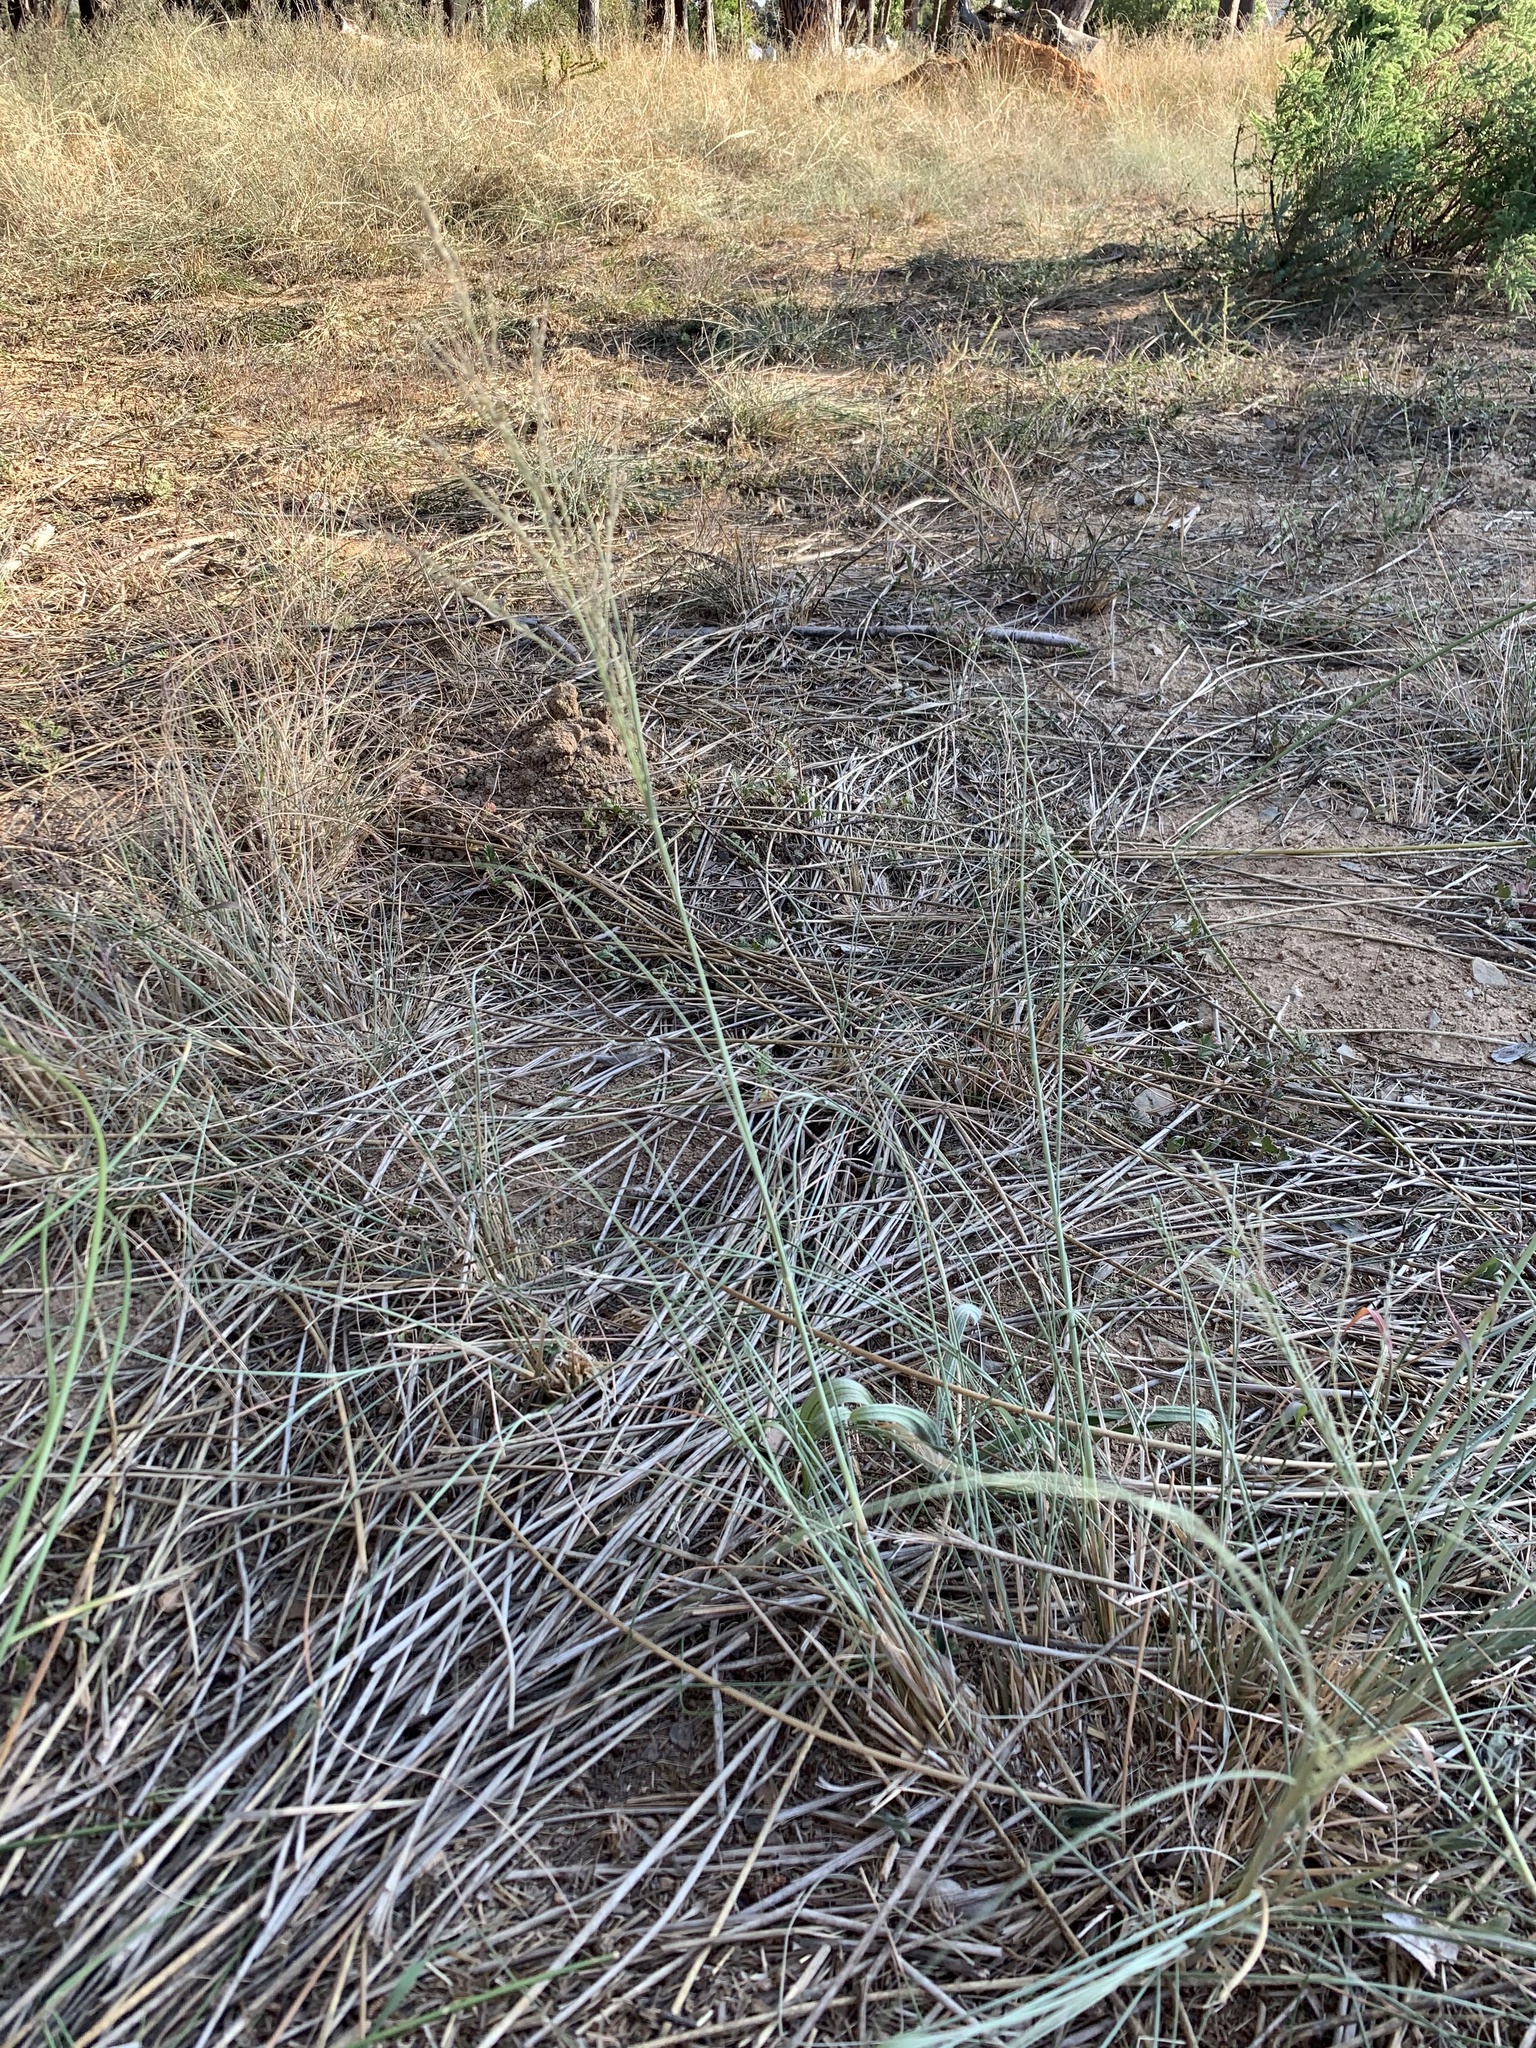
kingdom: Plantae
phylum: Tracheophyta
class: Liliopsida
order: Poales
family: Poaceae
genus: Eragrostis
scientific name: Eragrostis curvula
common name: African love-grass
